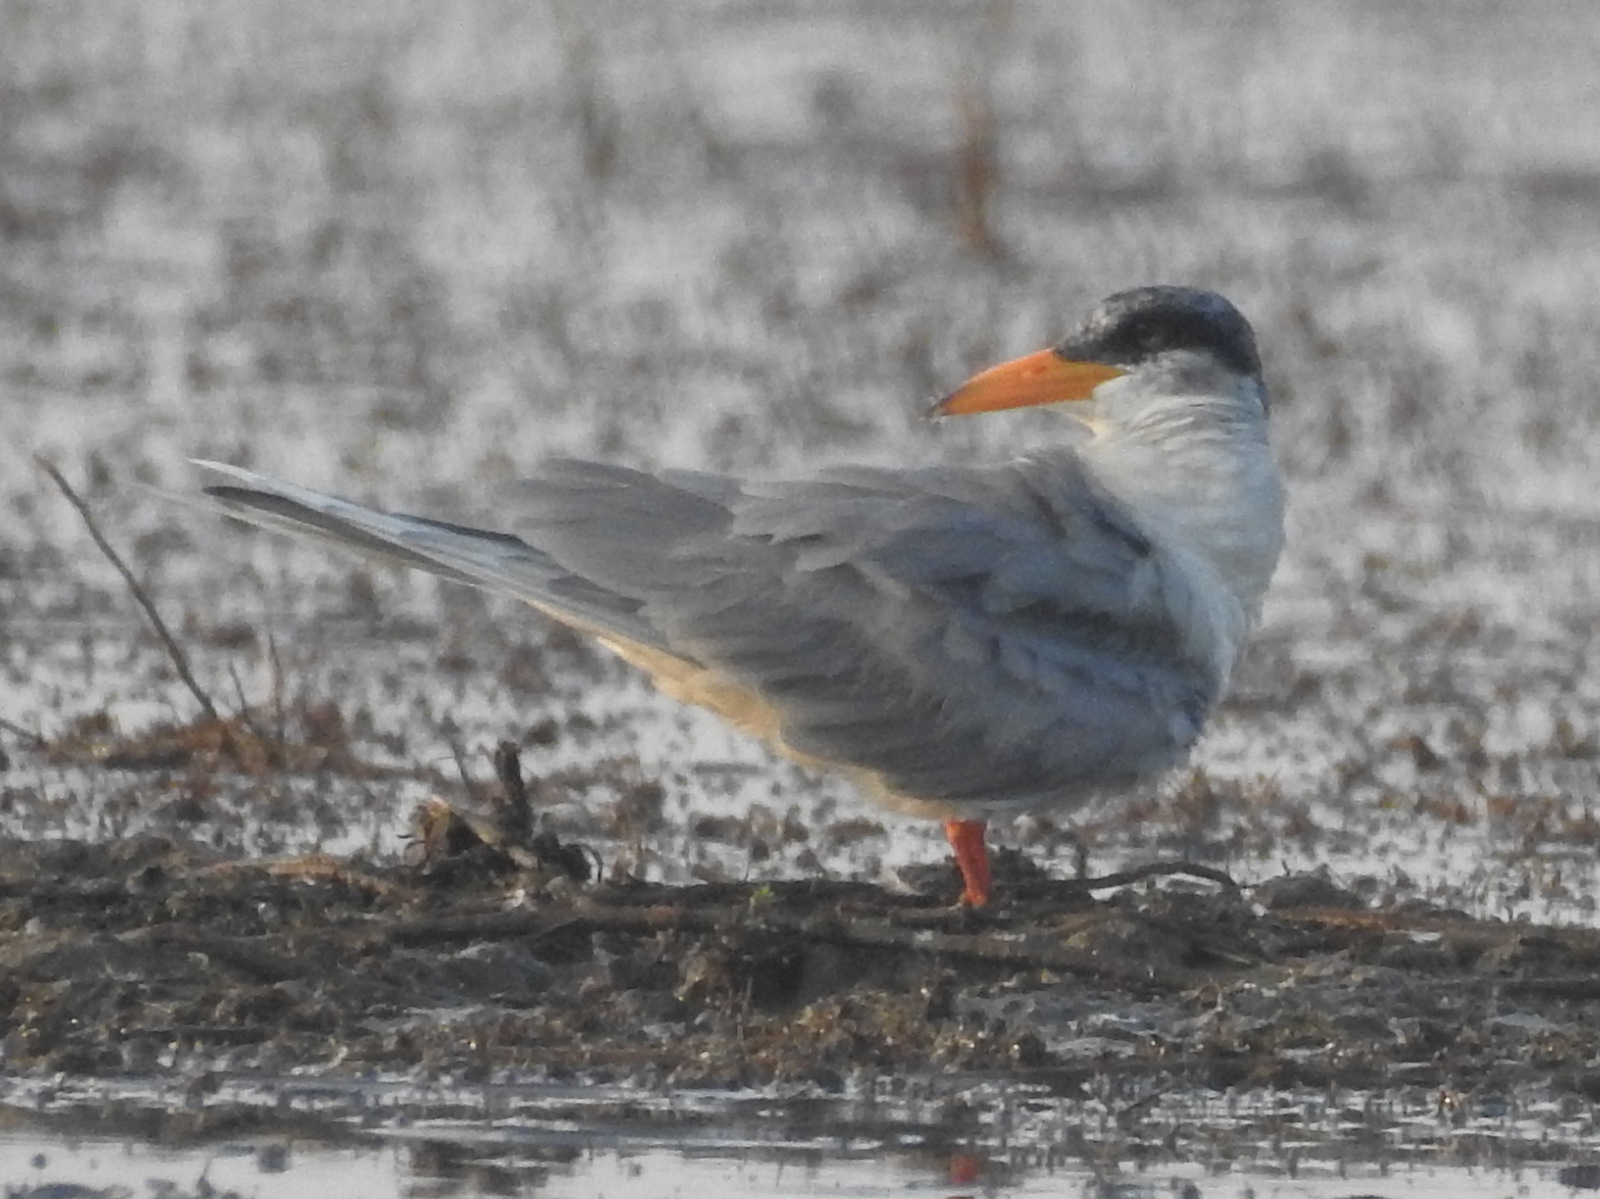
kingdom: Animalia
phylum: Chordata
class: Aves
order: Charadriiformes
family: Laridae
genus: Sterna
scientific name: Sterna aurantia
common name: River tern
